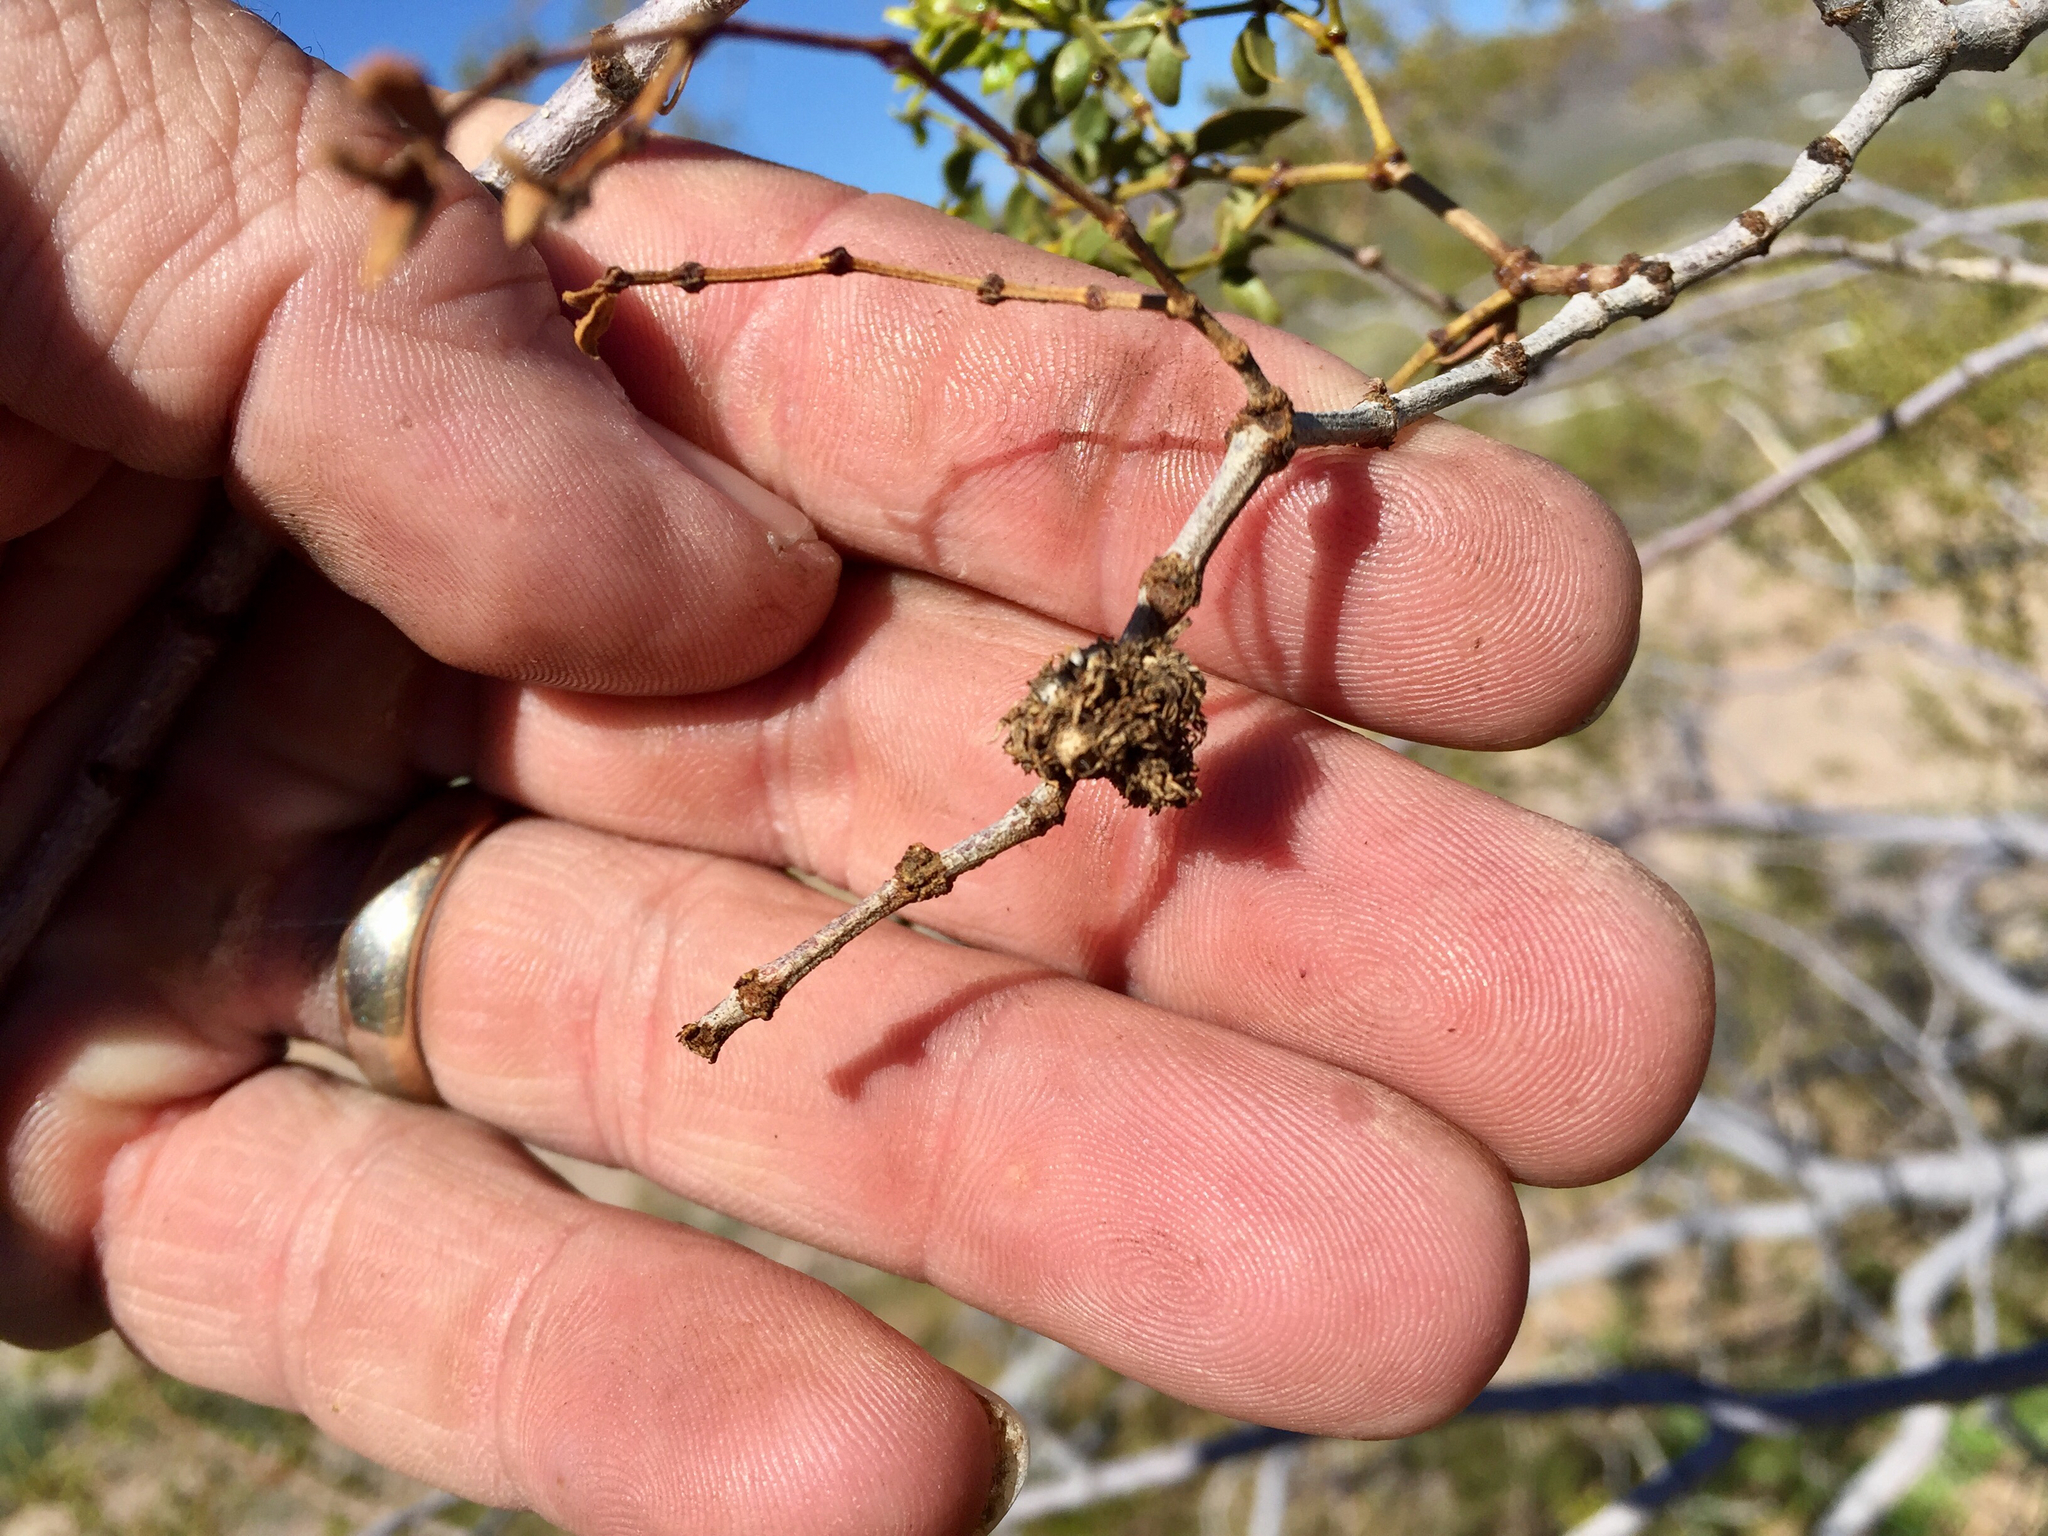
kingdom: Animalia
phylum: Arthropoda
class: Insecta
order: Diptera
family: Cecidomyiidae
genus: Asphondylia
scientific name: Asphondylia auripila
